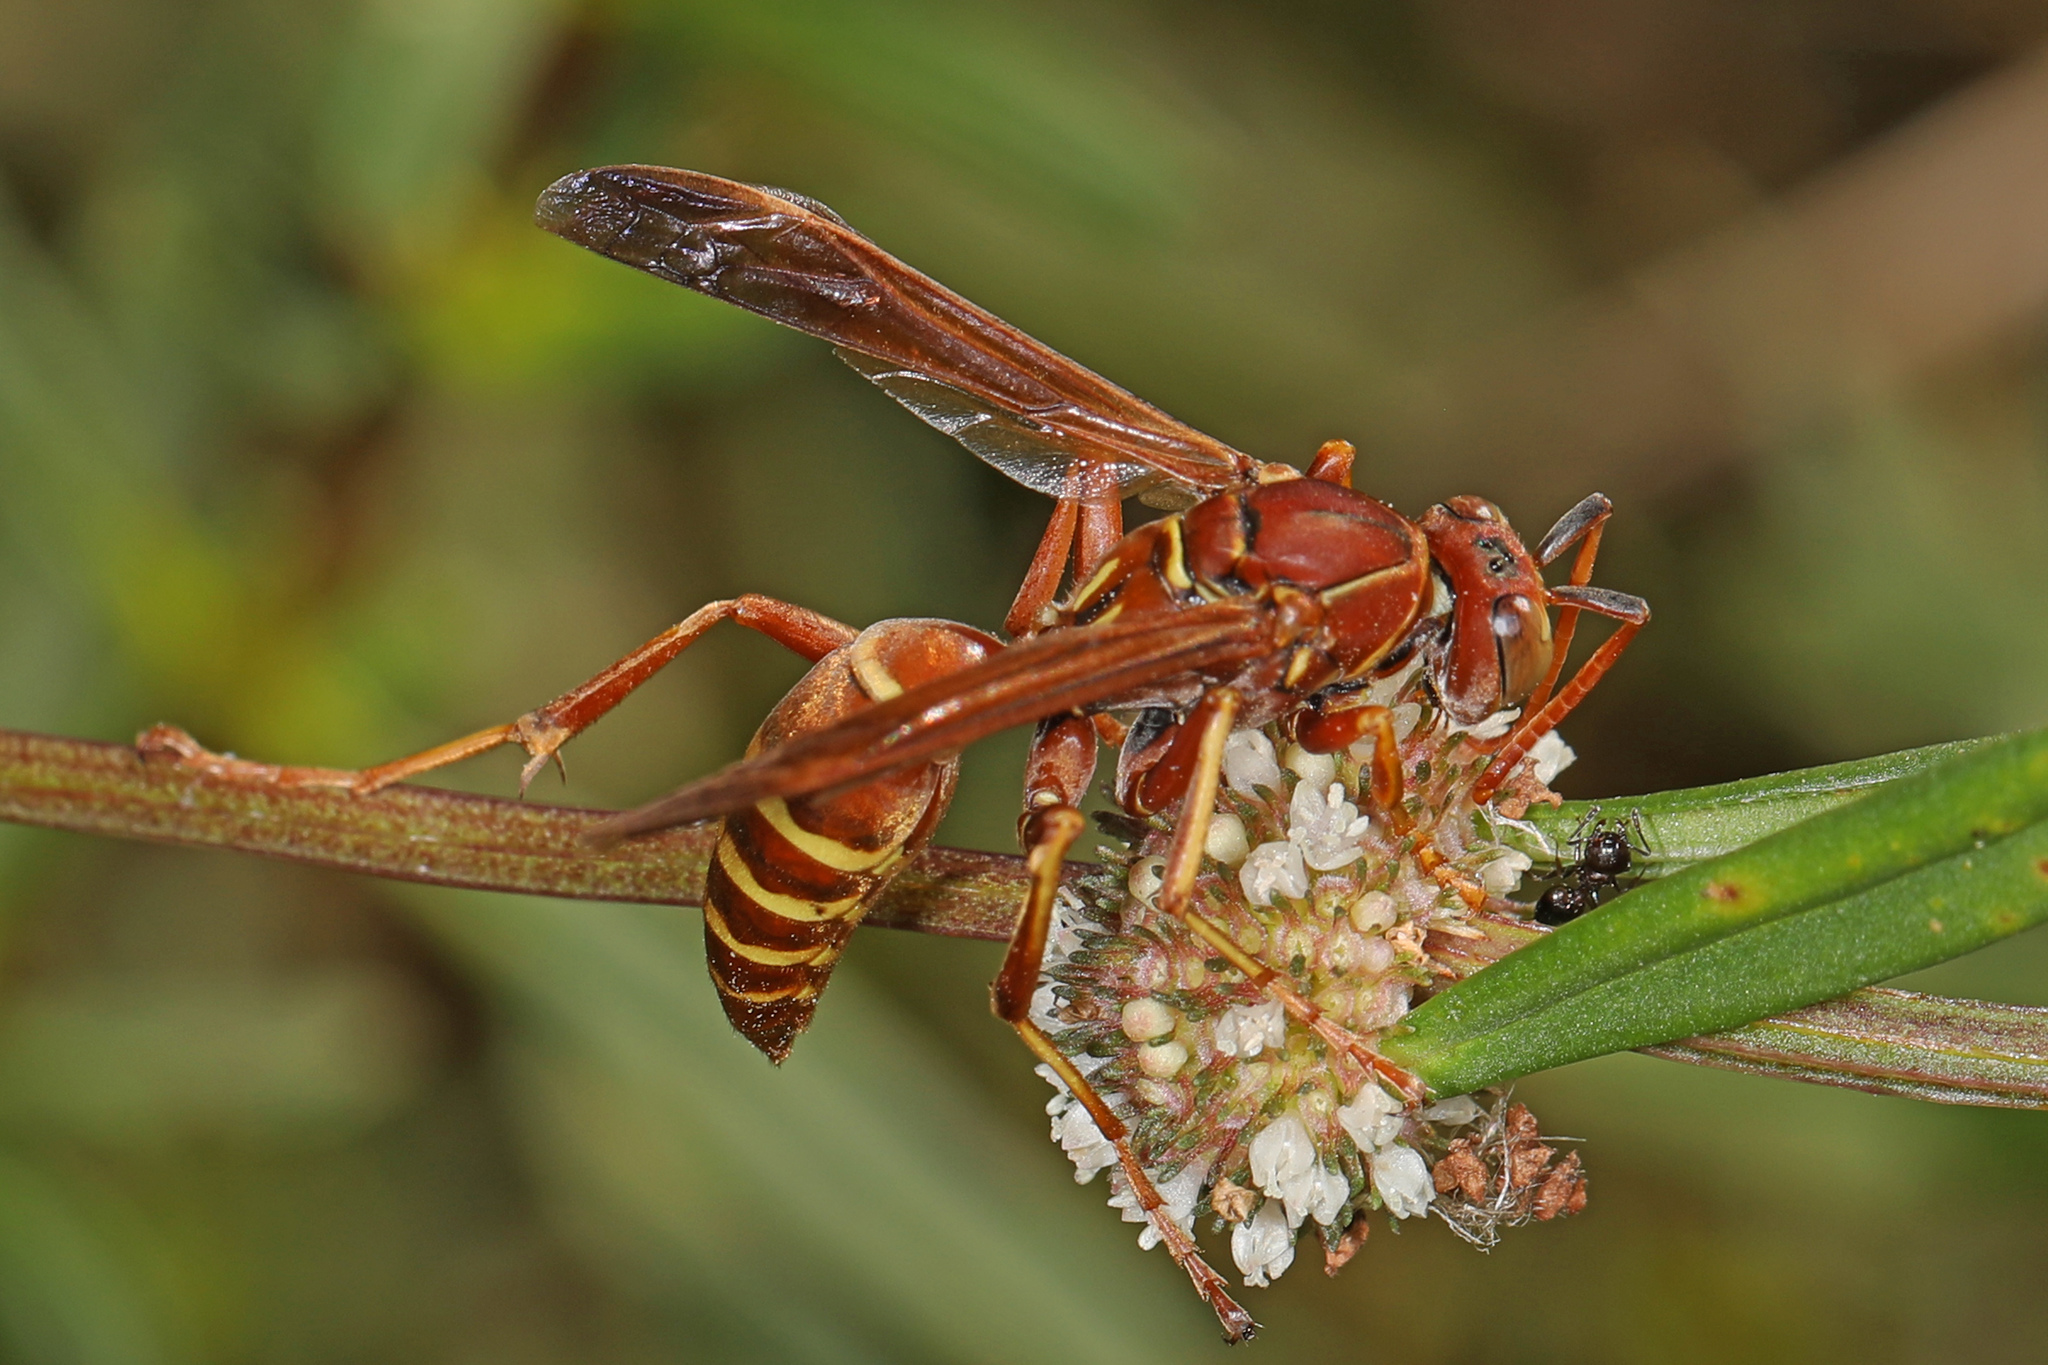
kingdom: Animalia
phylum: Arthropoda
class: Insecta
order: Hymenoptera
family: Eumenidae
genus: Polistes
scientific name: Polistes dorsalis
